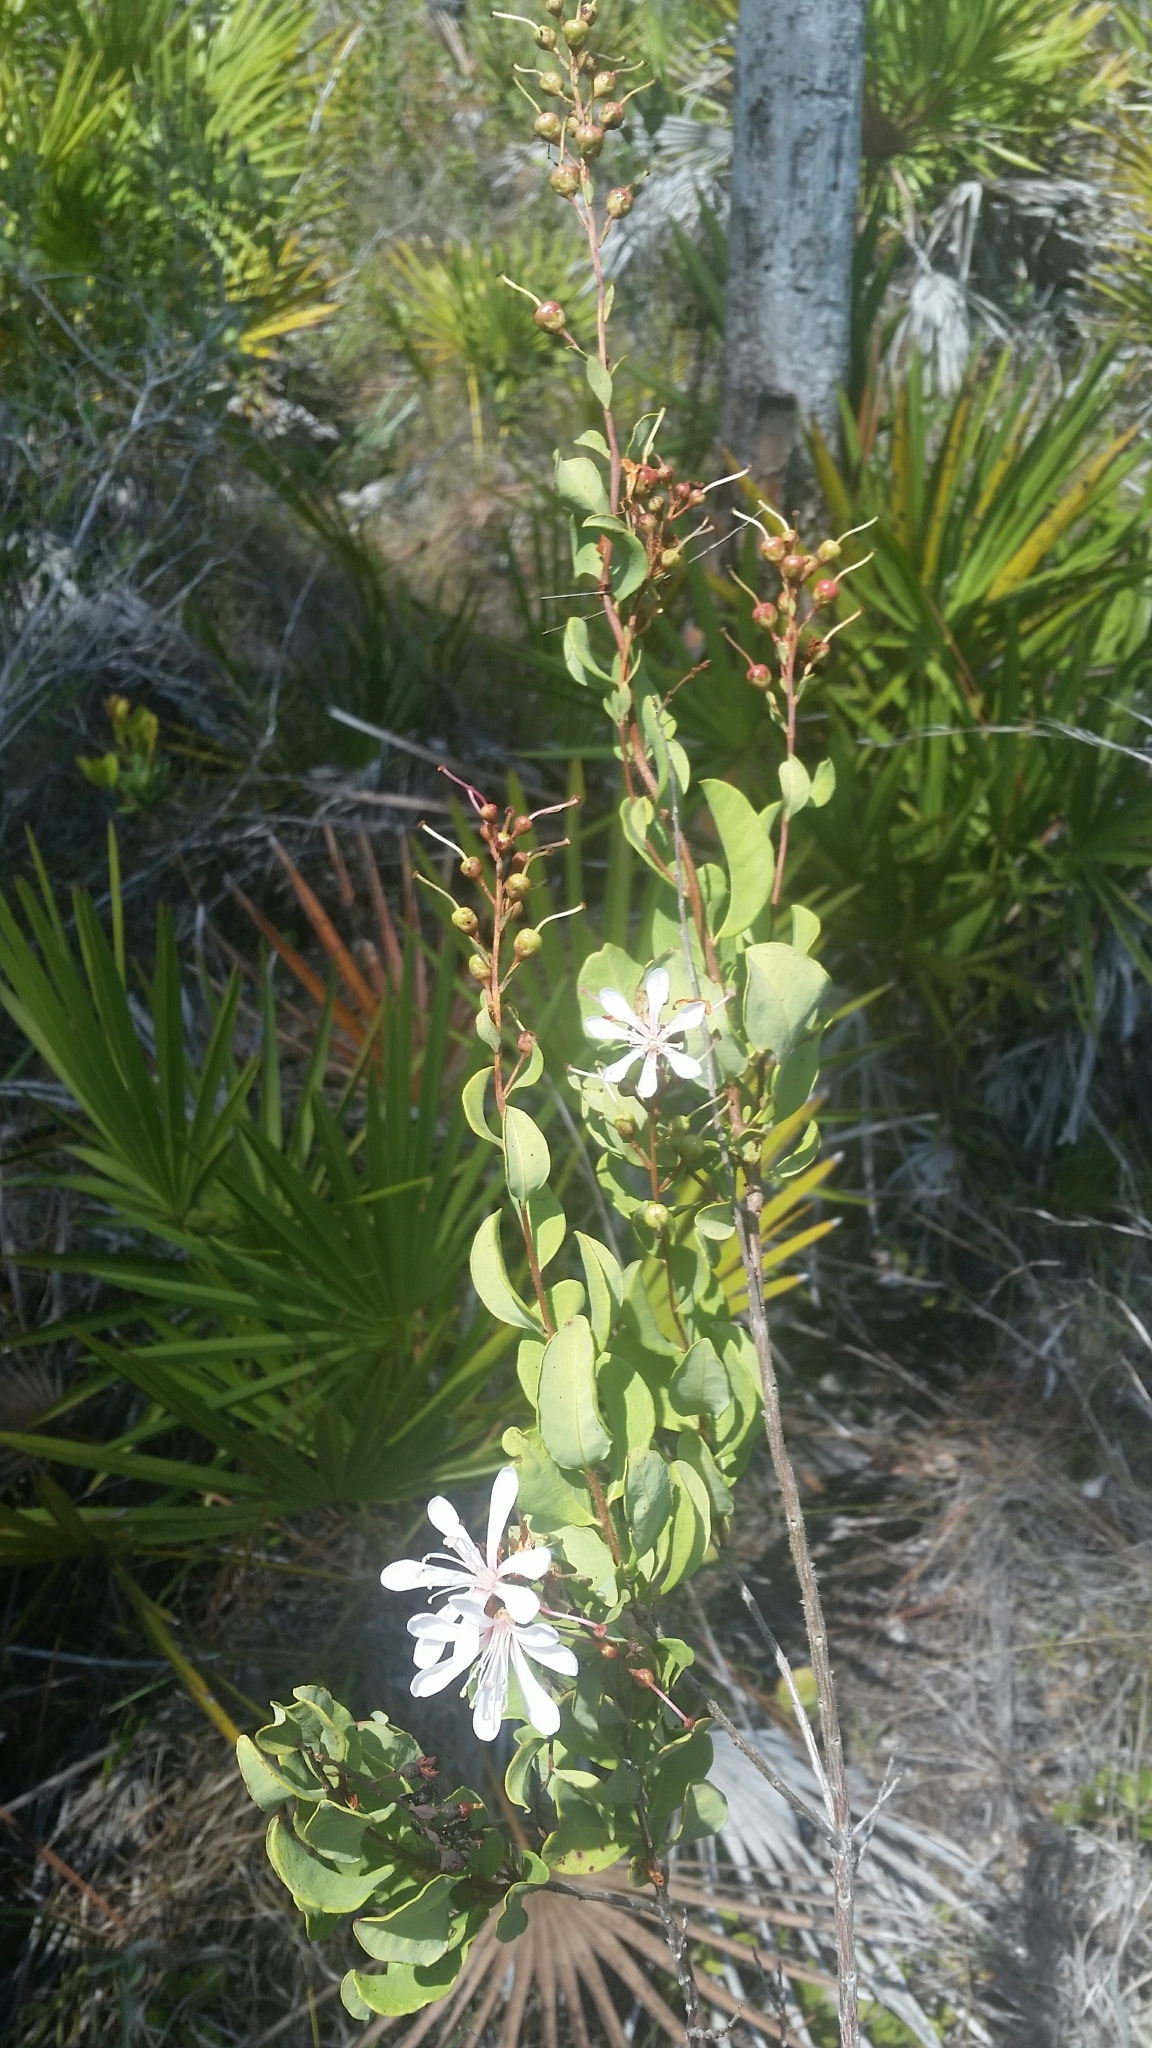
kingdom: Plantae
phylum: Tracheophyta
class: Magnoliopsida
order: Ericales
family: Ericaceae
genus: Bejaria
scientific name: Bejaria racemosa
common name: Tarflower
